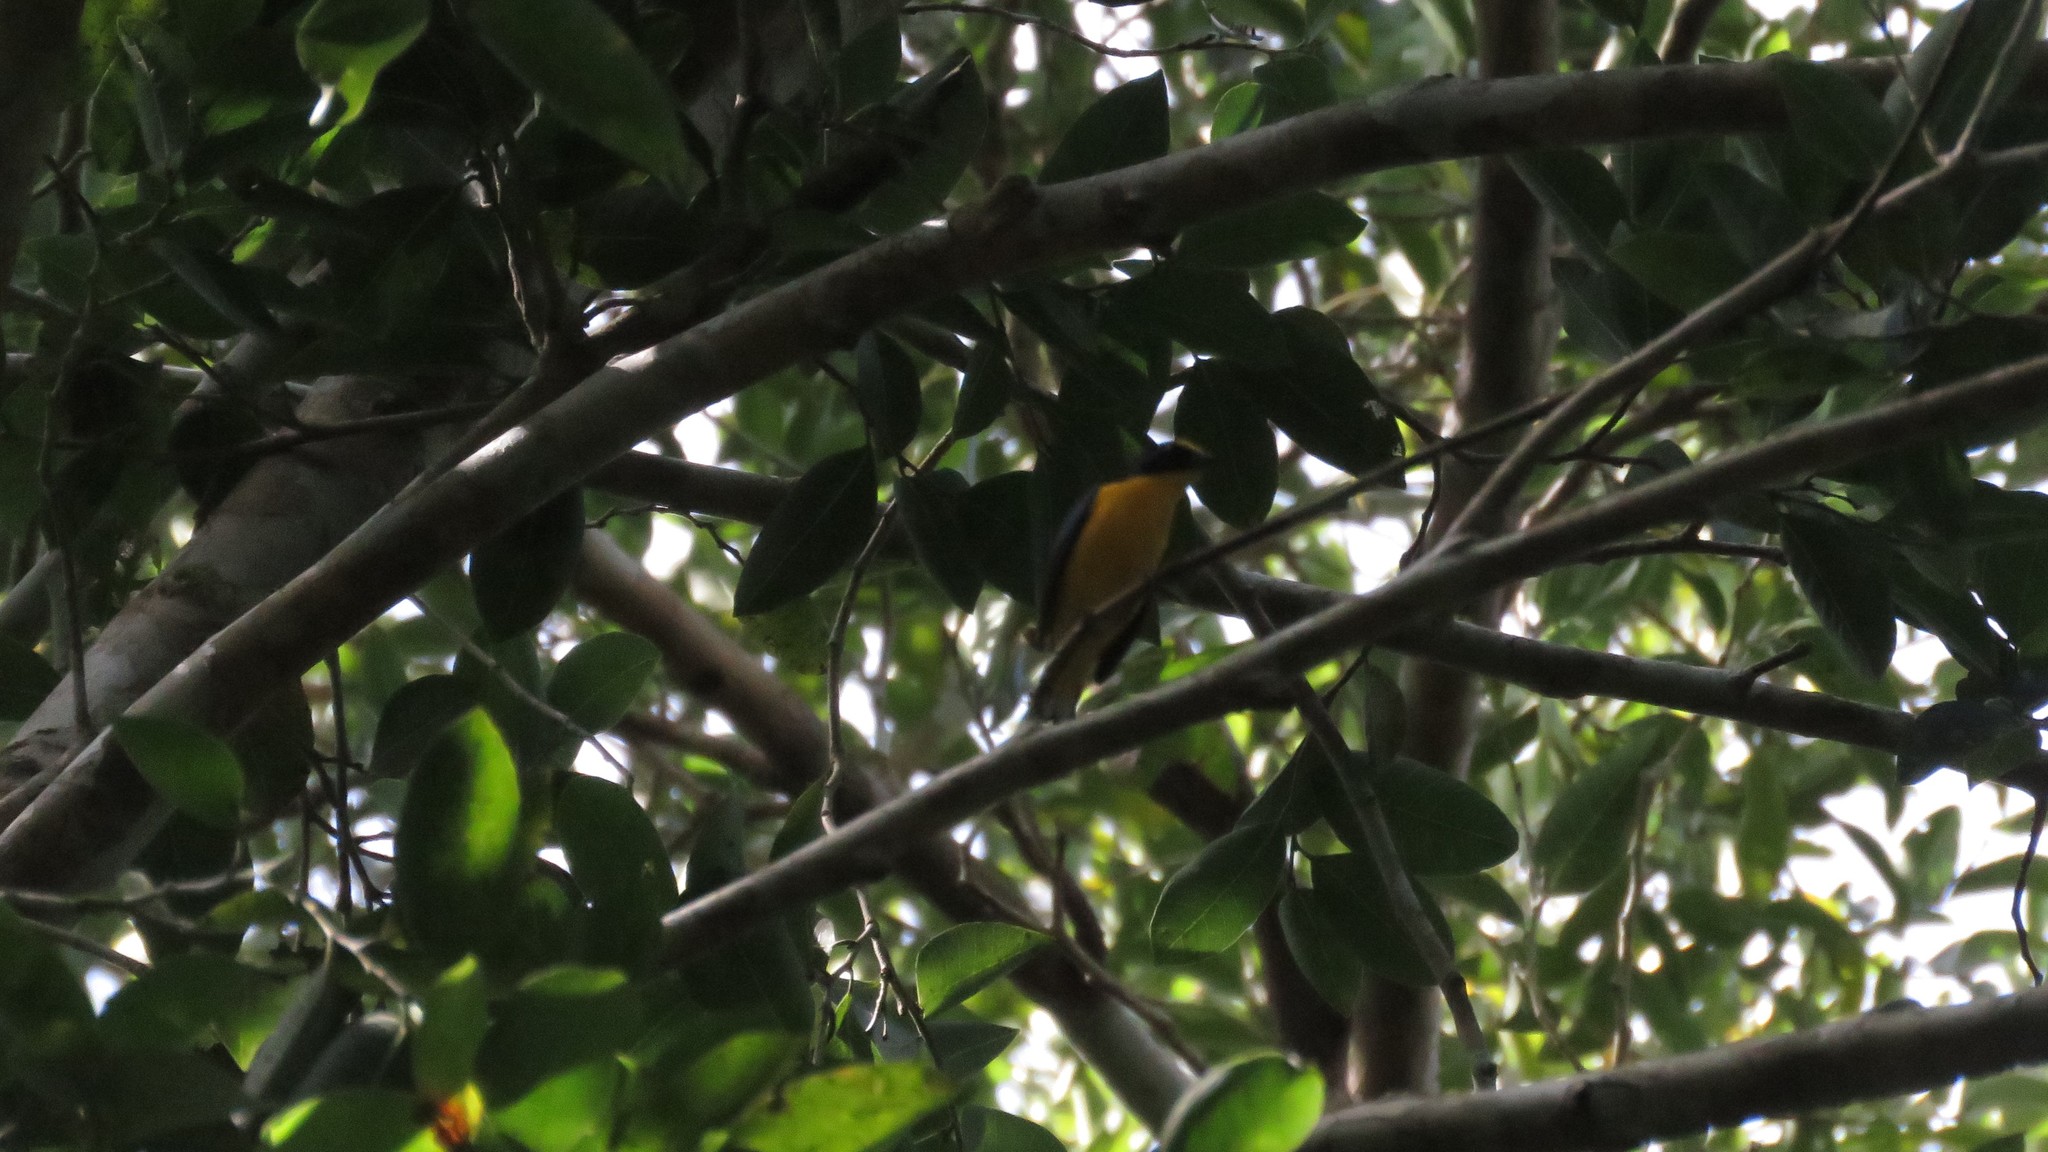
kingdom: Animalia
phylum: Chordata
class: Aves
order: Passeriformes
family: Fringillidae
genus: Euphonia
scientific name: Euphonia hirundinacea
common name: Yellow-throated euphonia
